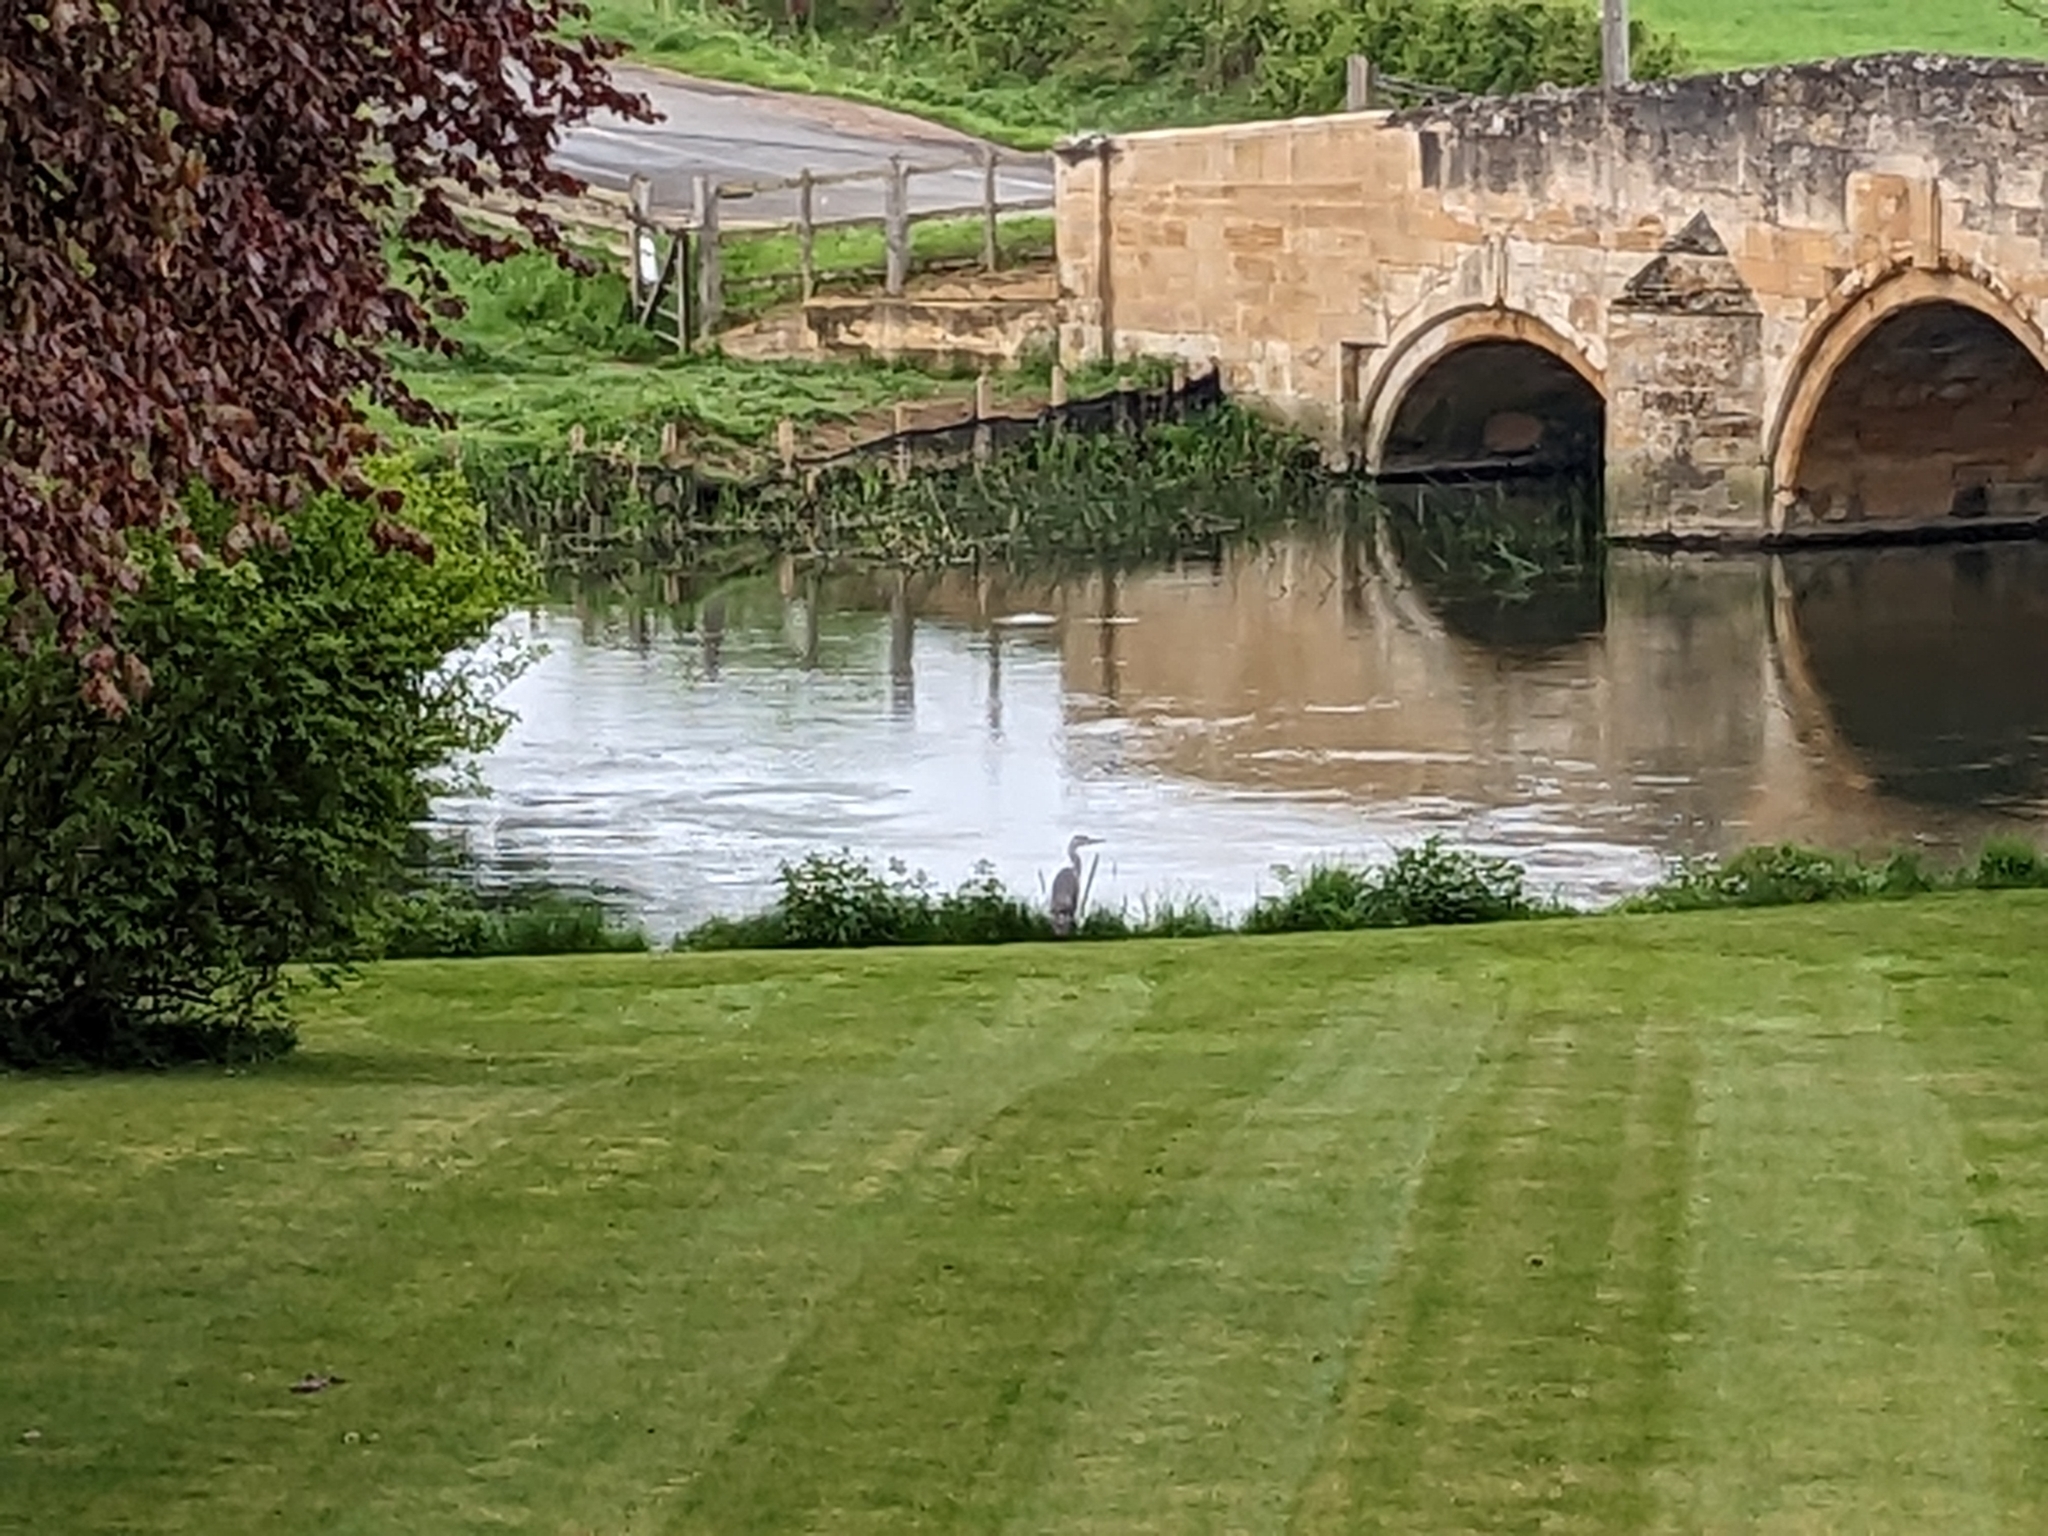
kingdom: Animalia
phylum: Chordata
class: Aves
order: Pelecaniformes
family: Ardeidae
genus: Ardea
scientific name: Ardea cinerea
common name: Grey heron
